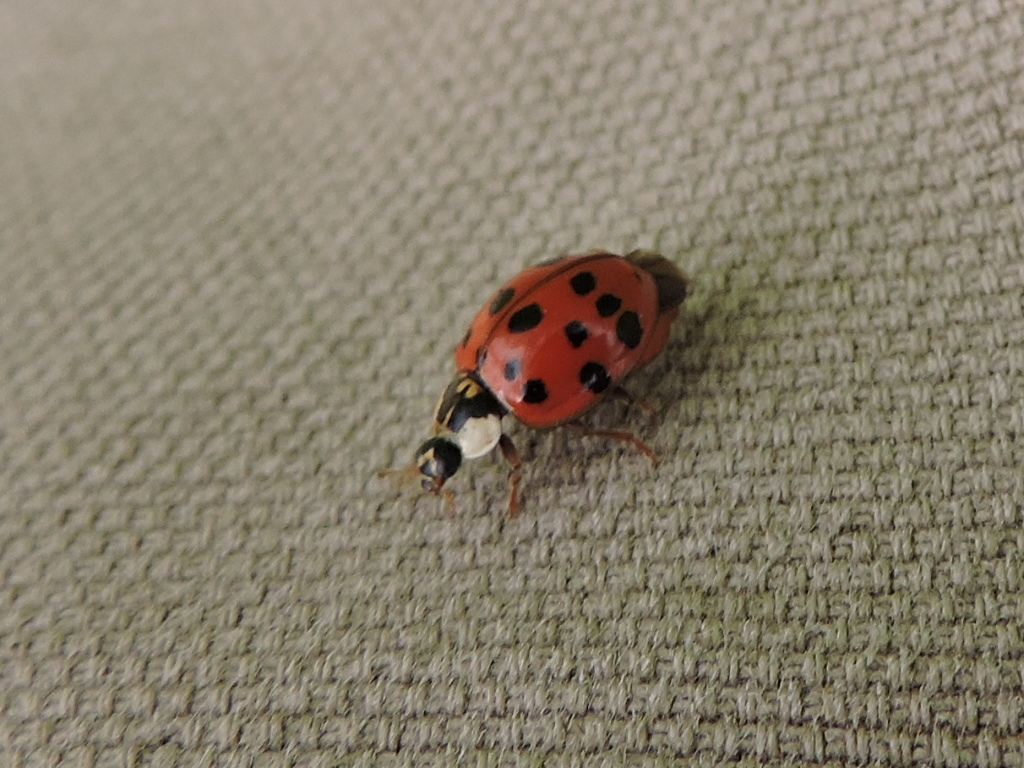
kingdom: Animalia
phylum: Arthropoda
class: Insecta
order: Coleoptera
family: Coccinellidae
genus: Harmonia
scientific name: Harmonia axyridis
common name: Harlequin ladybird
